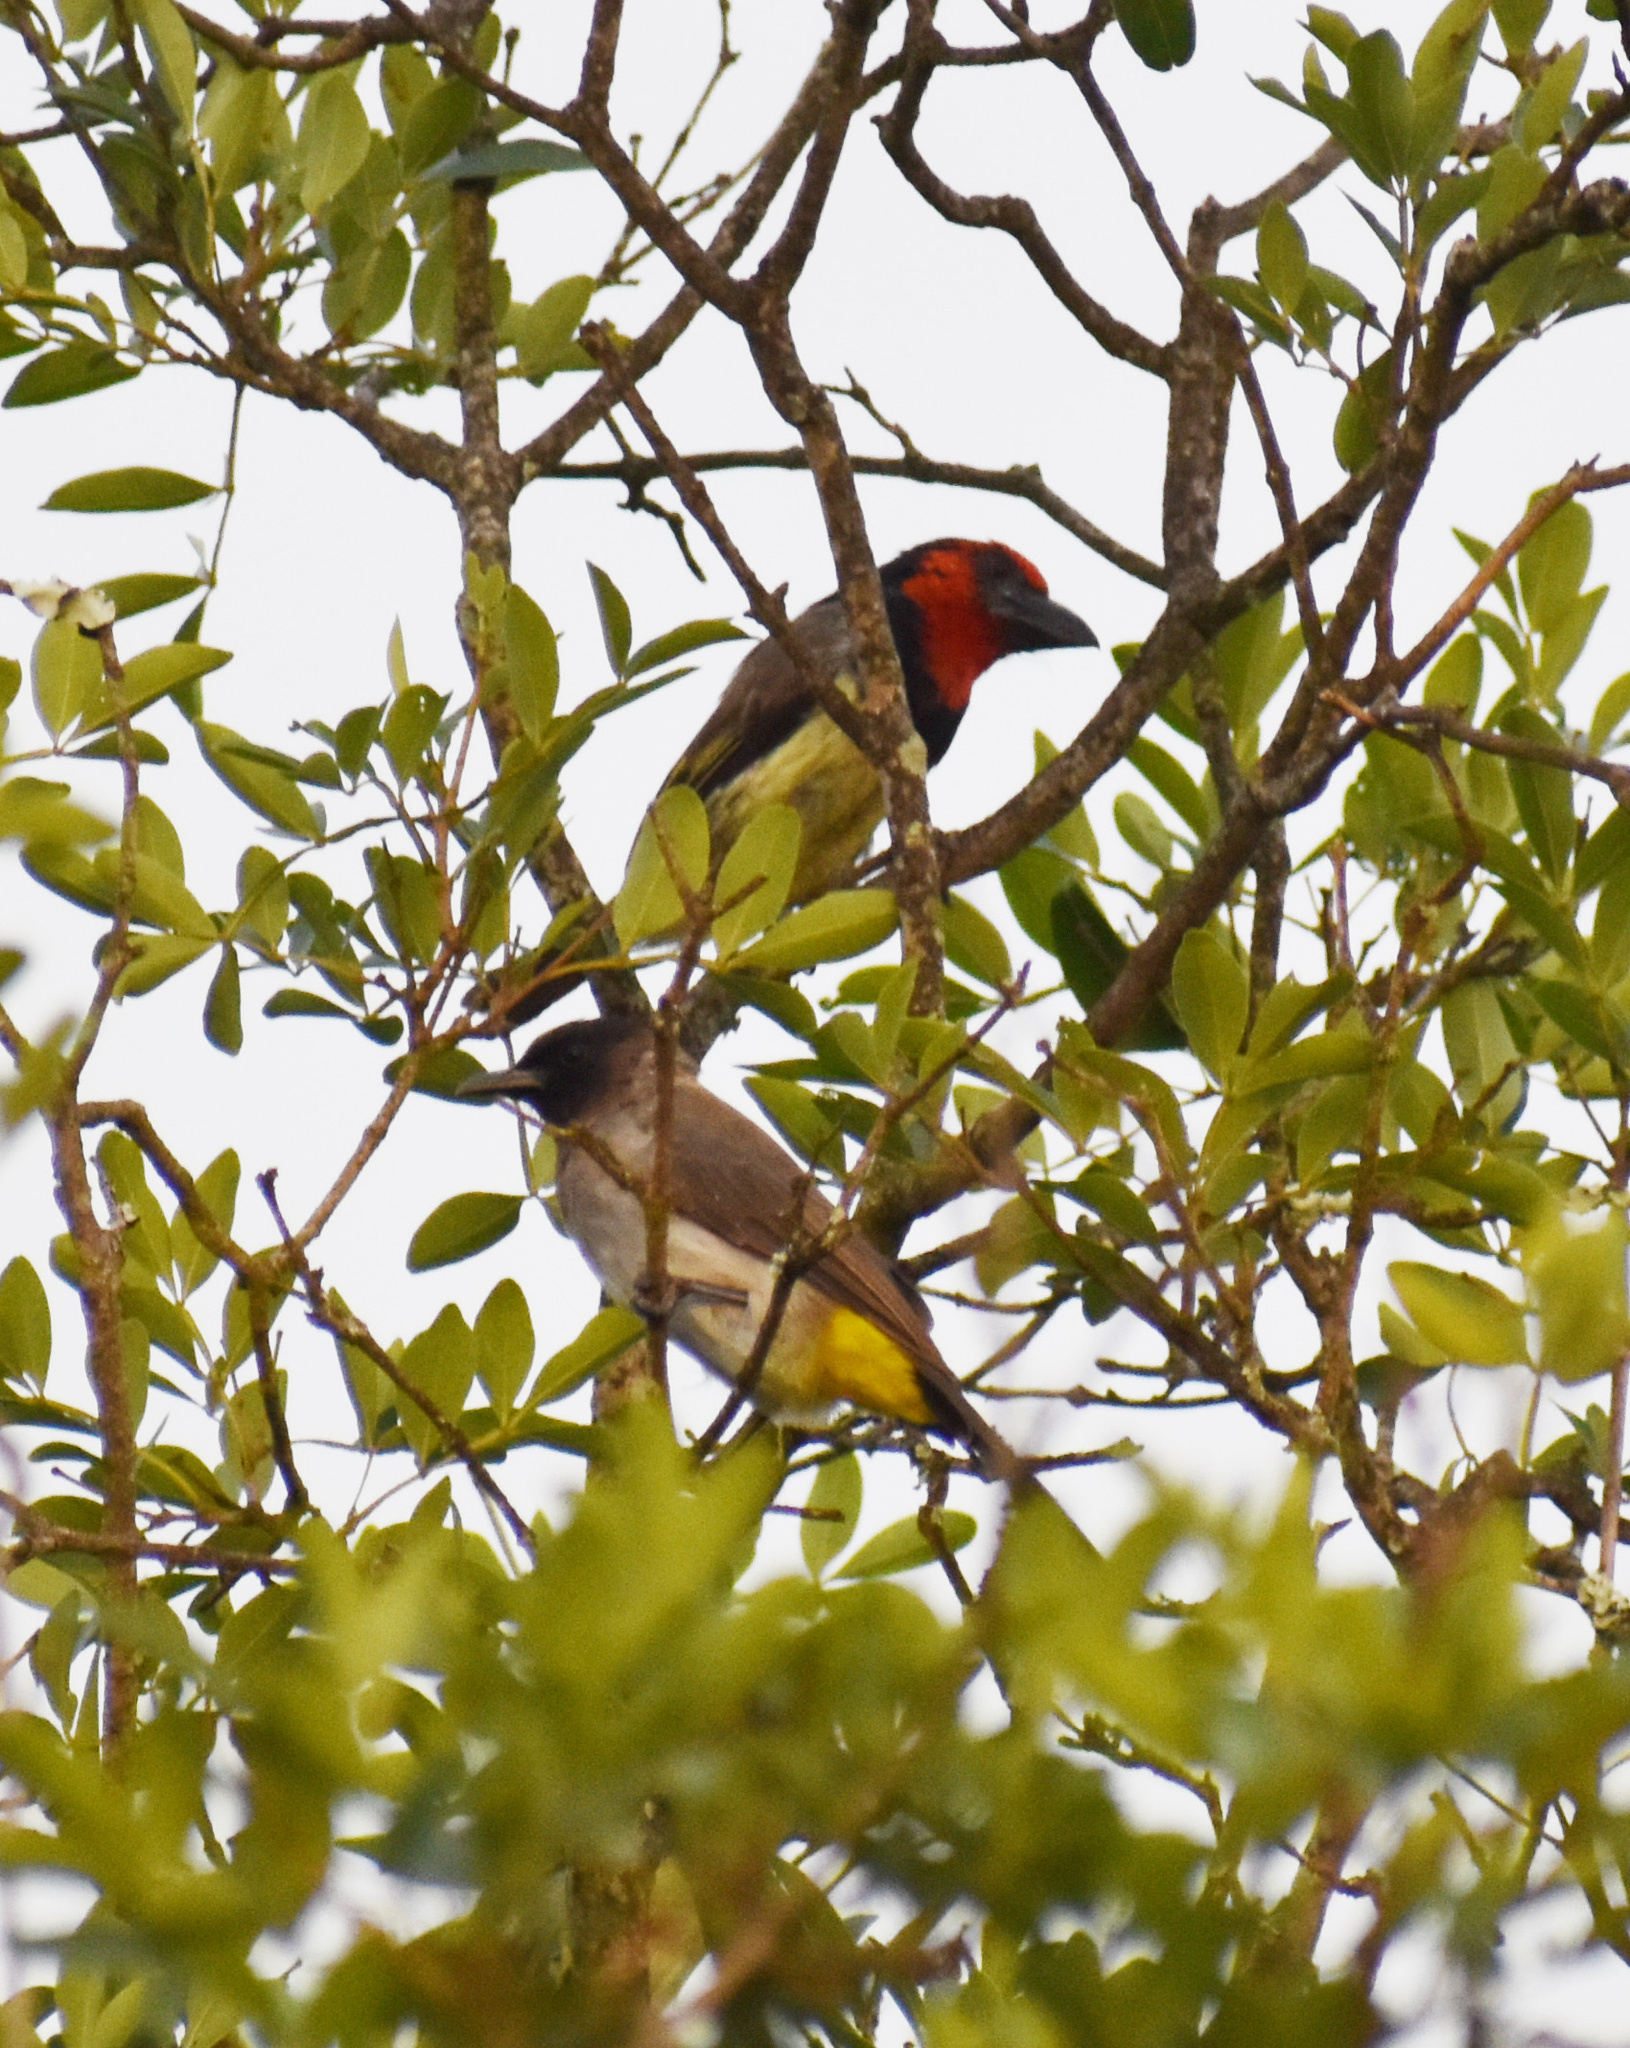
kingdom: Animalia
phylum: Chordata
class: Aves
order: Piciformes
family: Lybiidae
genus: Lybius
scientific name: Lybius torquatus
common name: Black-collared barbet
